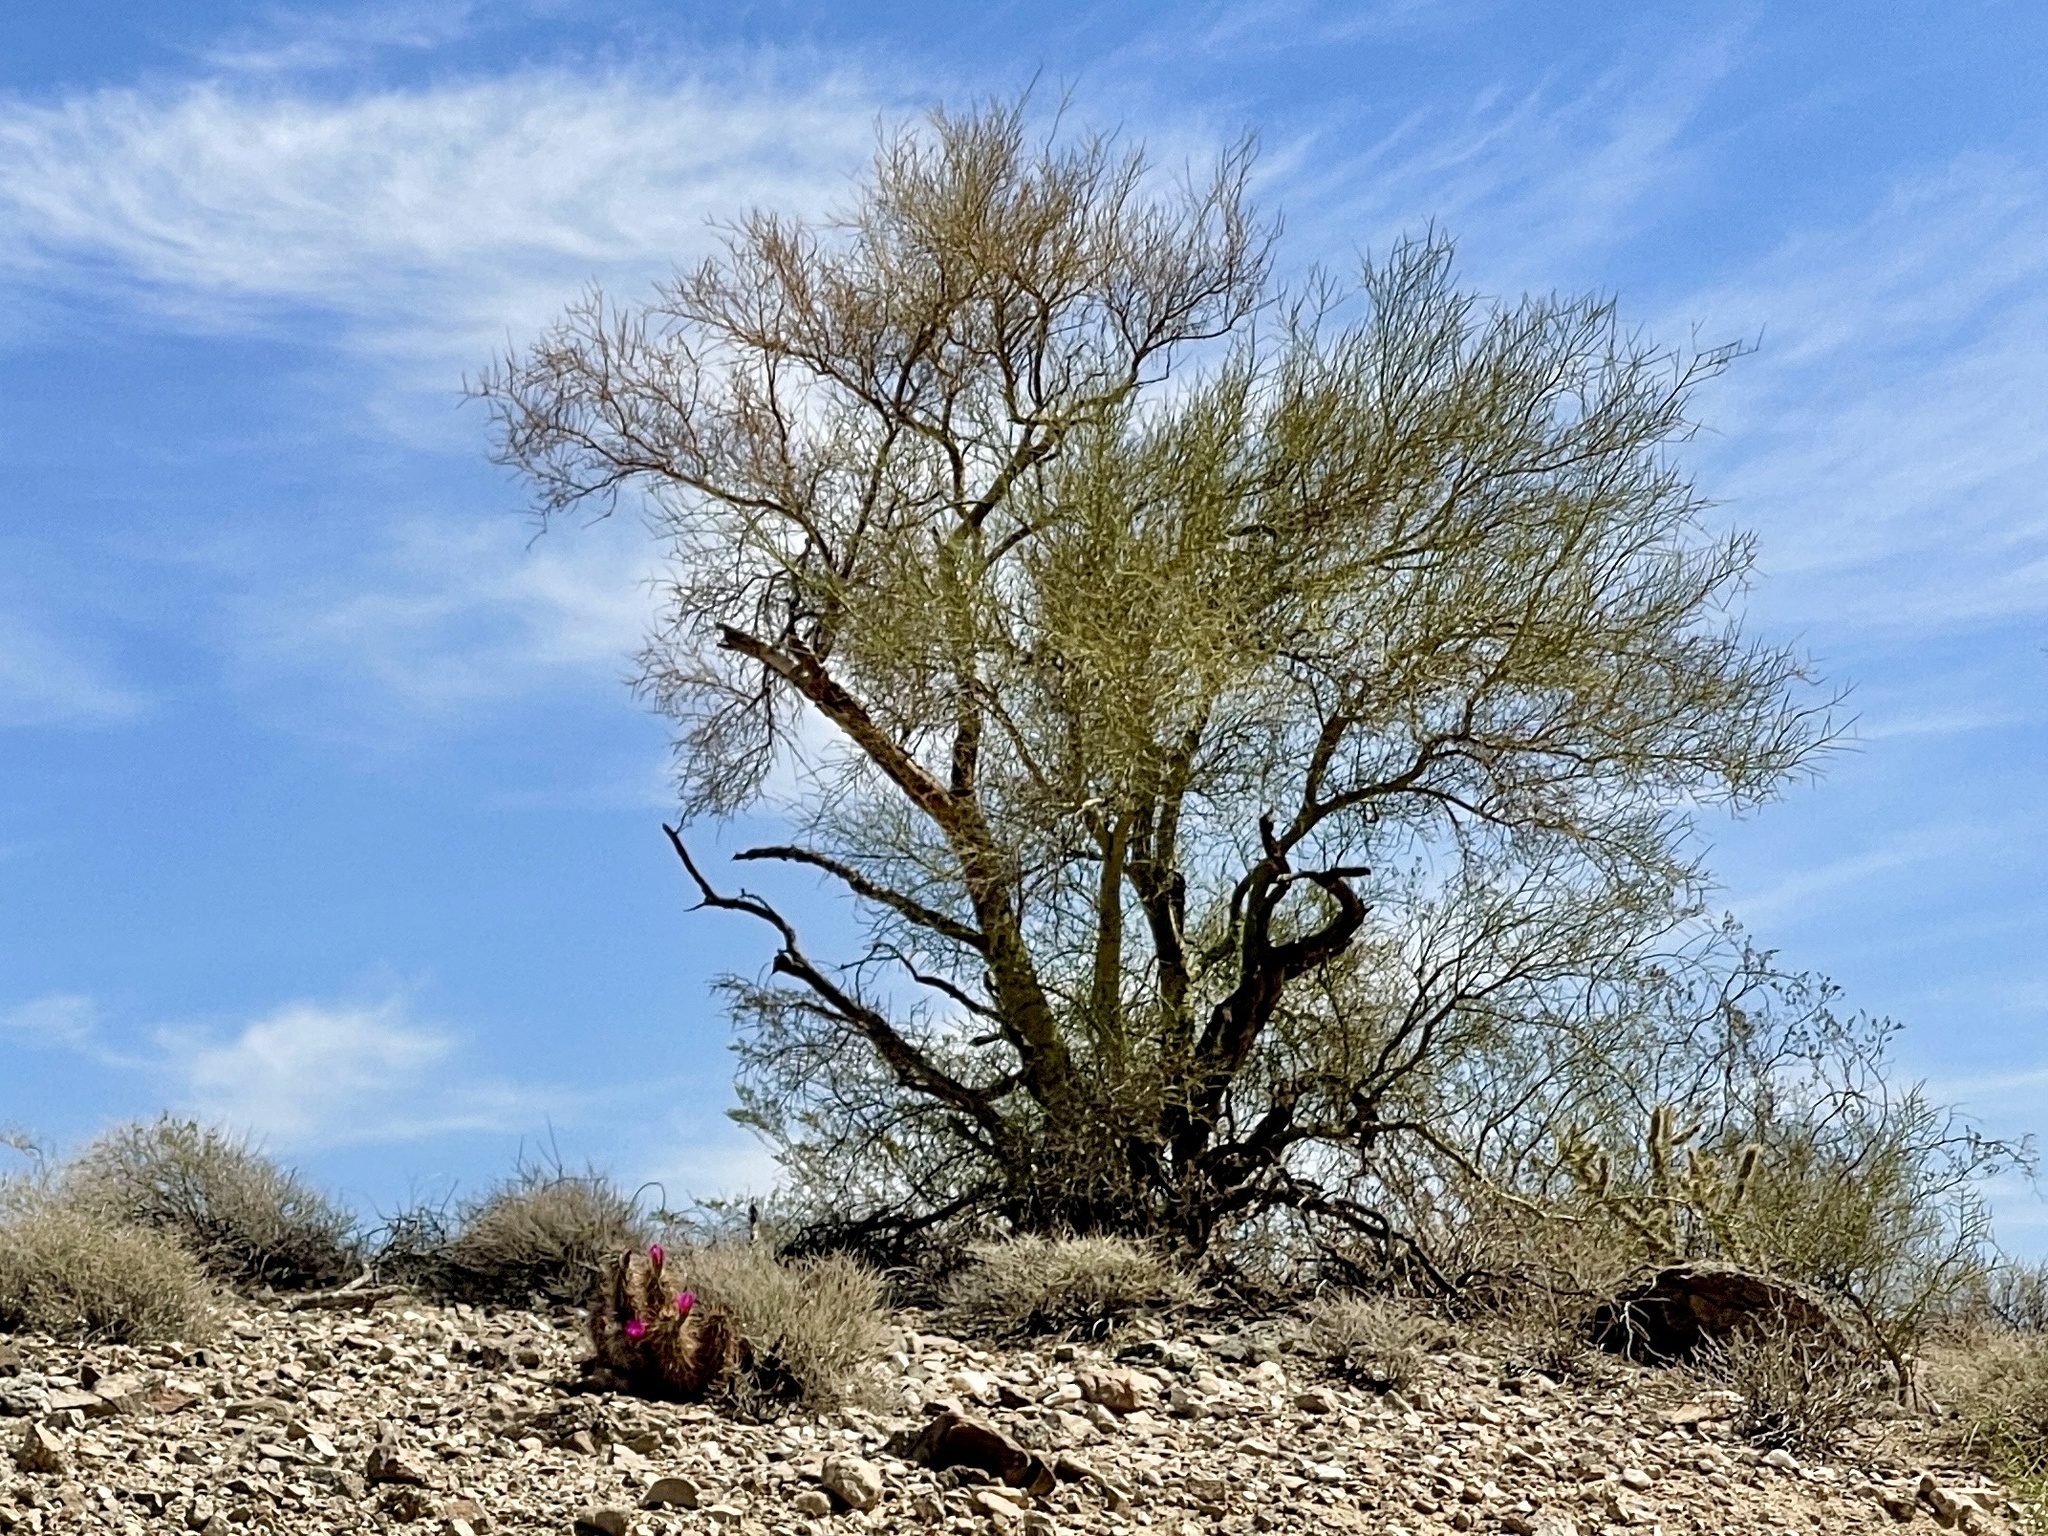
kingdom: Plantae
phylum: Tracheophyta
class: Magnoliopsida
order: Fabales
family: Fabaceae
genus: Parkinsonia
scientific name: Parkinsonia microphylla
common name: Yellow paloverde
